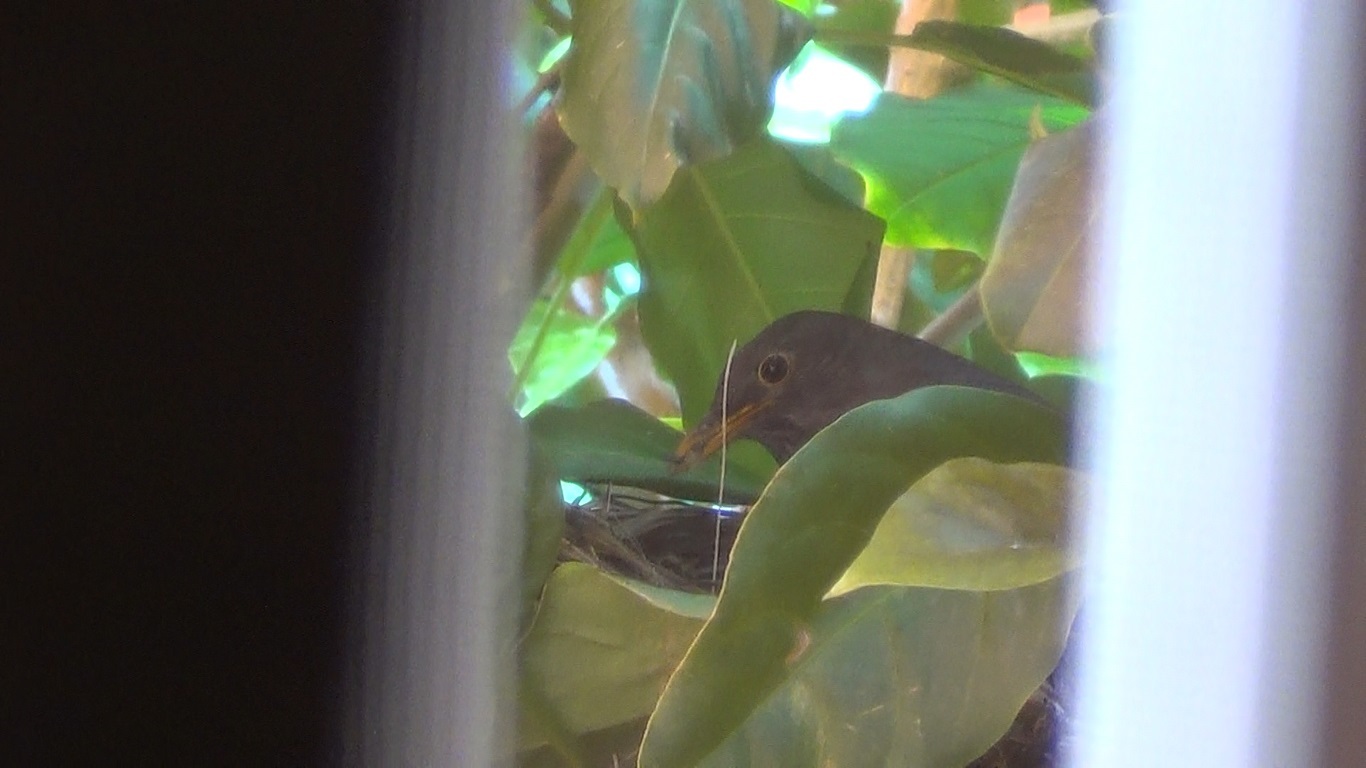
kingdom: Animalia
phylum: Chordata
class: Aves
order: Passeriformes
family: Turdidae
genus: Turdus
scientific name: Turdus merula
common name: Common blackbird
